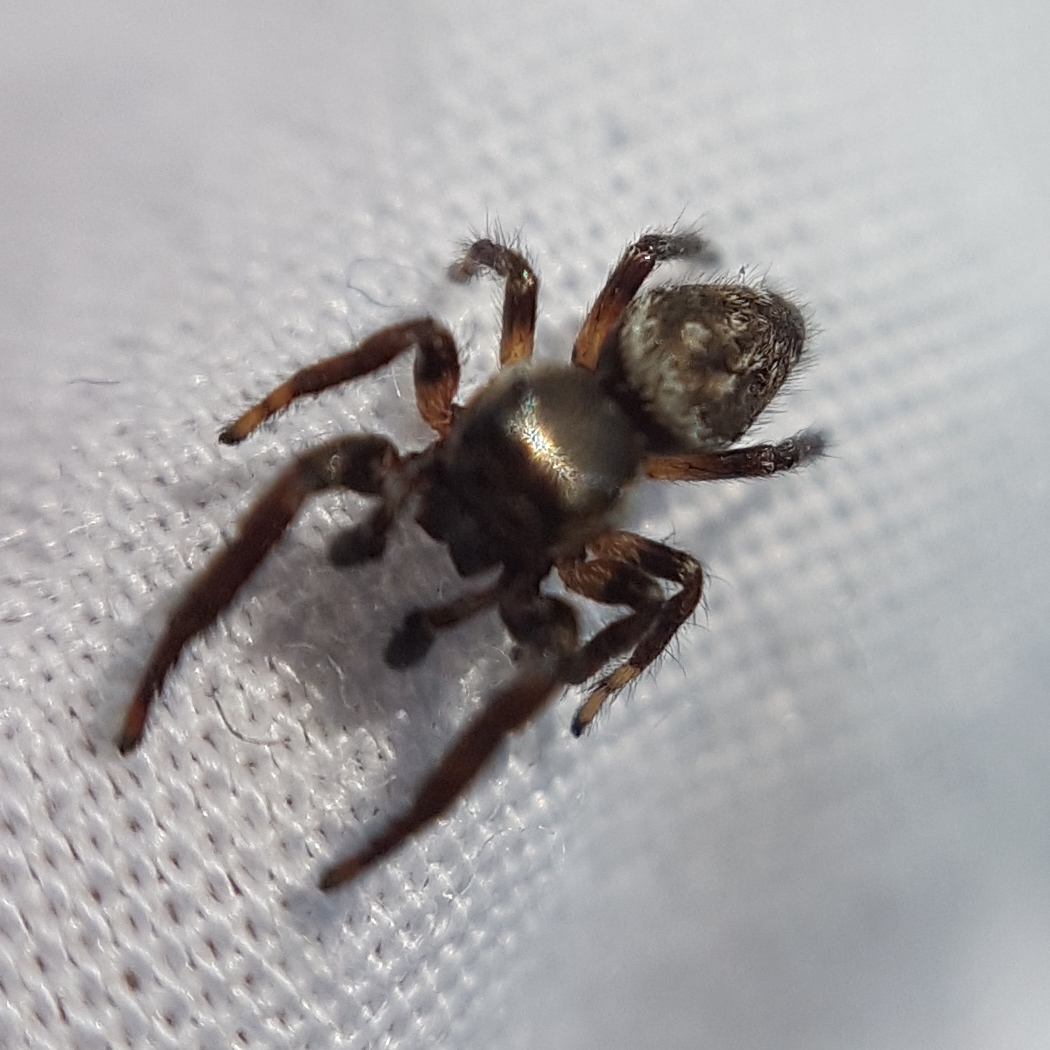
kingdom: Animalia
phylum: Arthropoda
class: Arachnida
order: Araneae
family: Salticidae
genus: Macaroeris
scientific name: Macaroeris nidicolens
